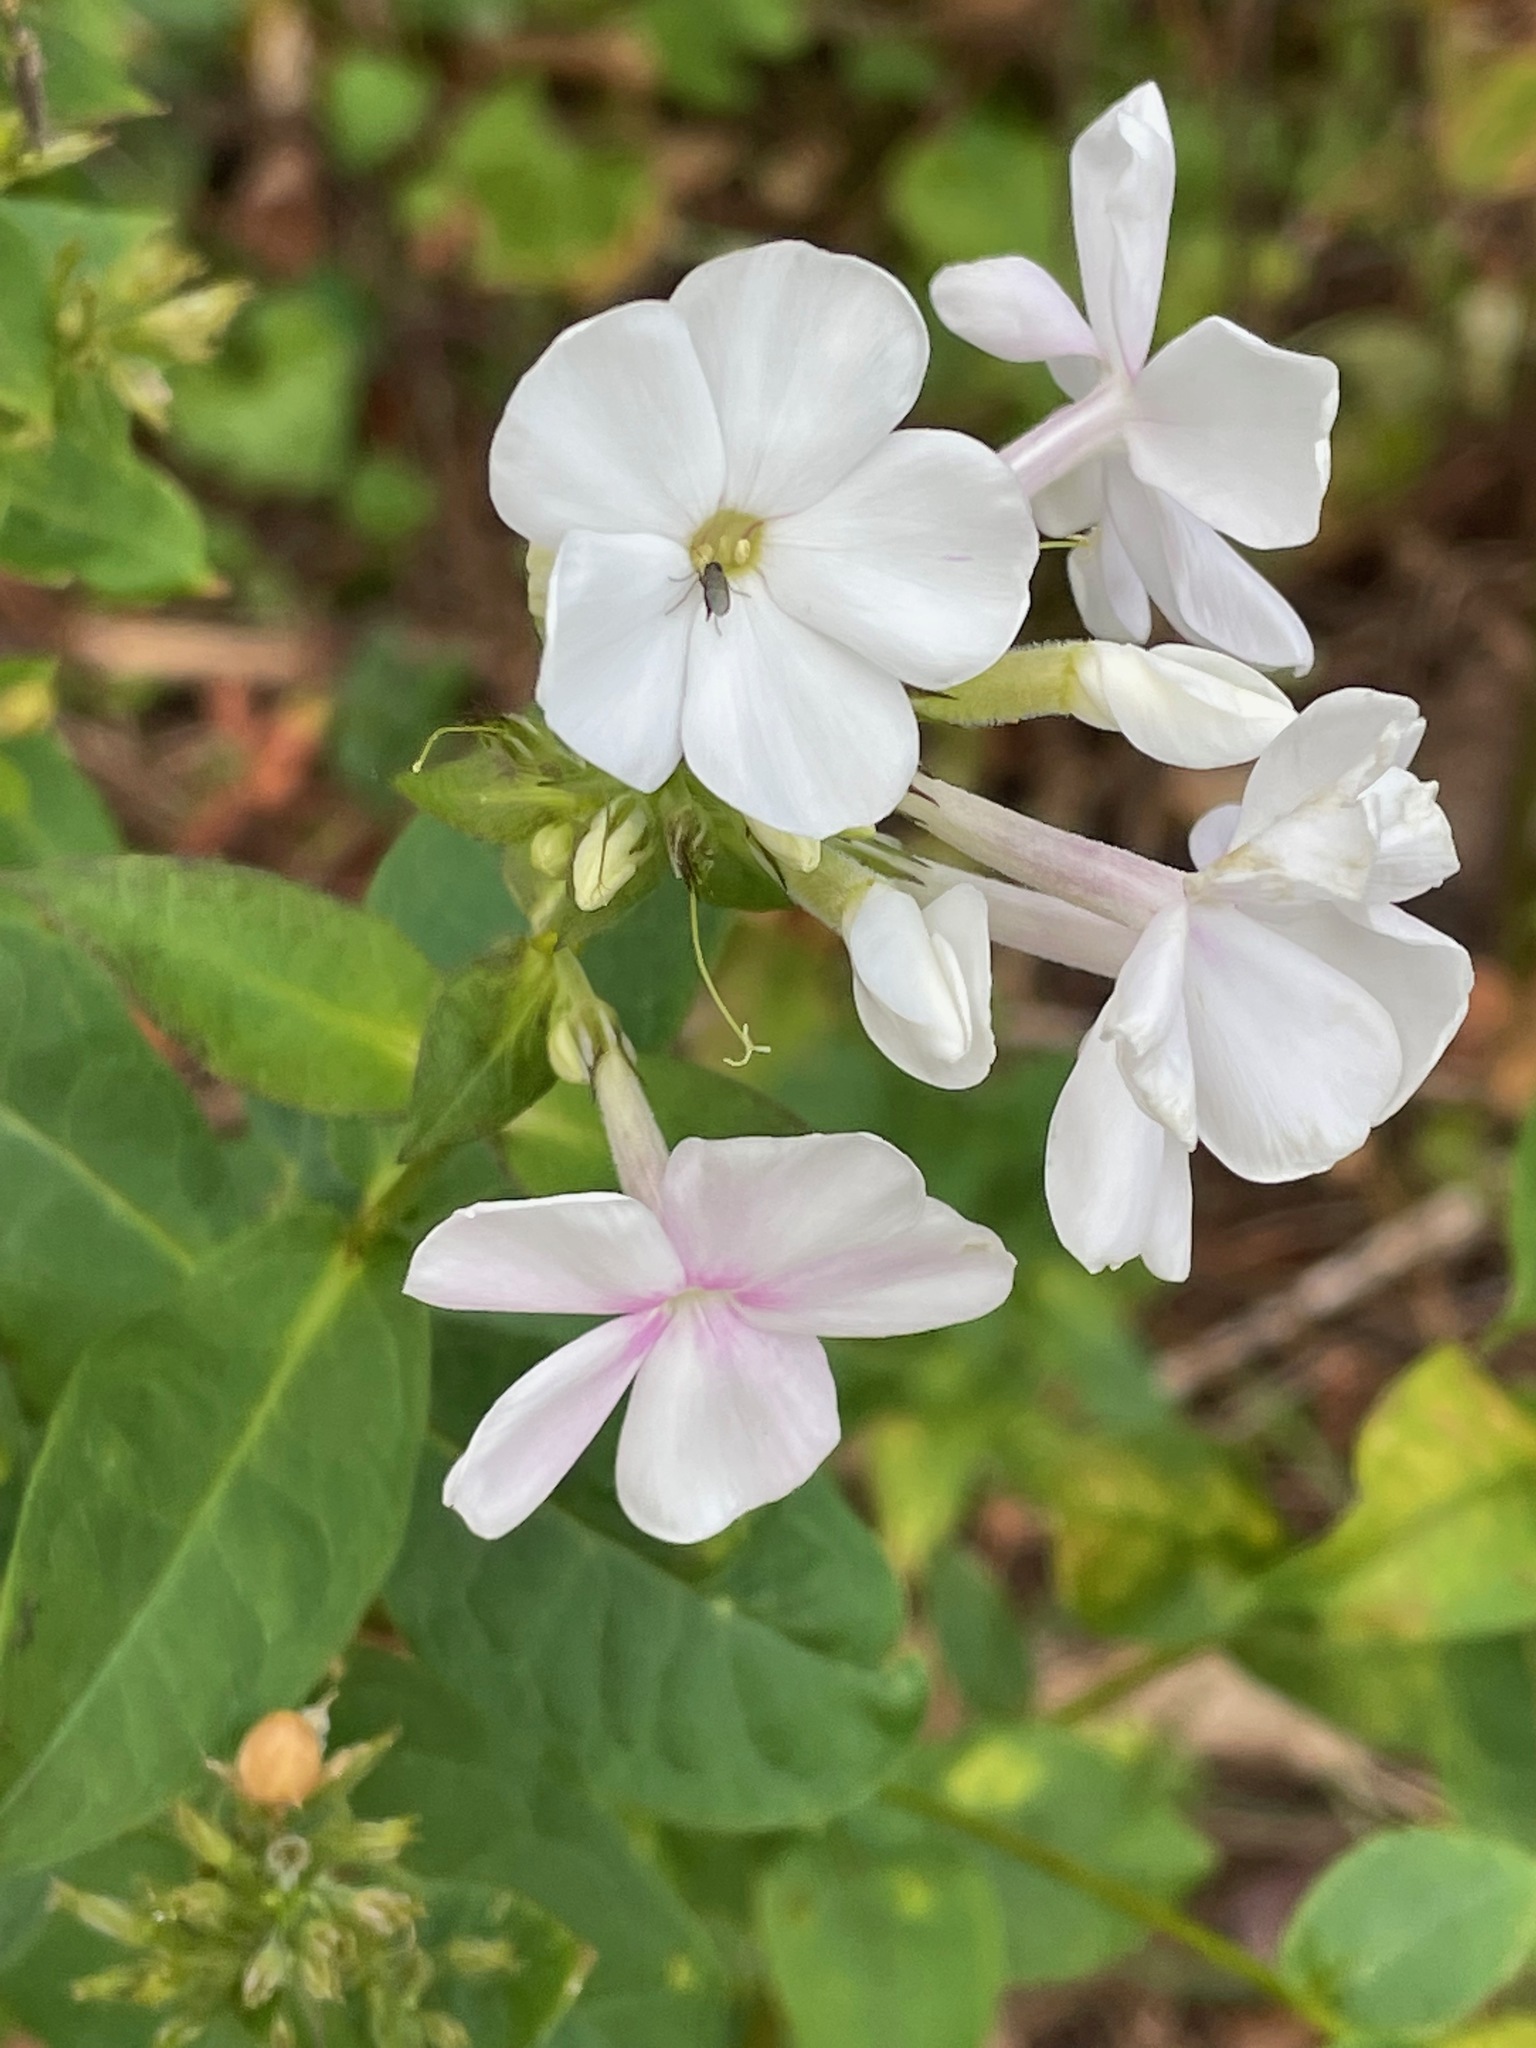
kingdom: Plantae
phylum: Tracheophyta
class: Magnoliopsida
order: Ericales
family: Polemoniaceae
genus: Phlox
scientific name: Phlox paniculata
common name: Fall phlox
